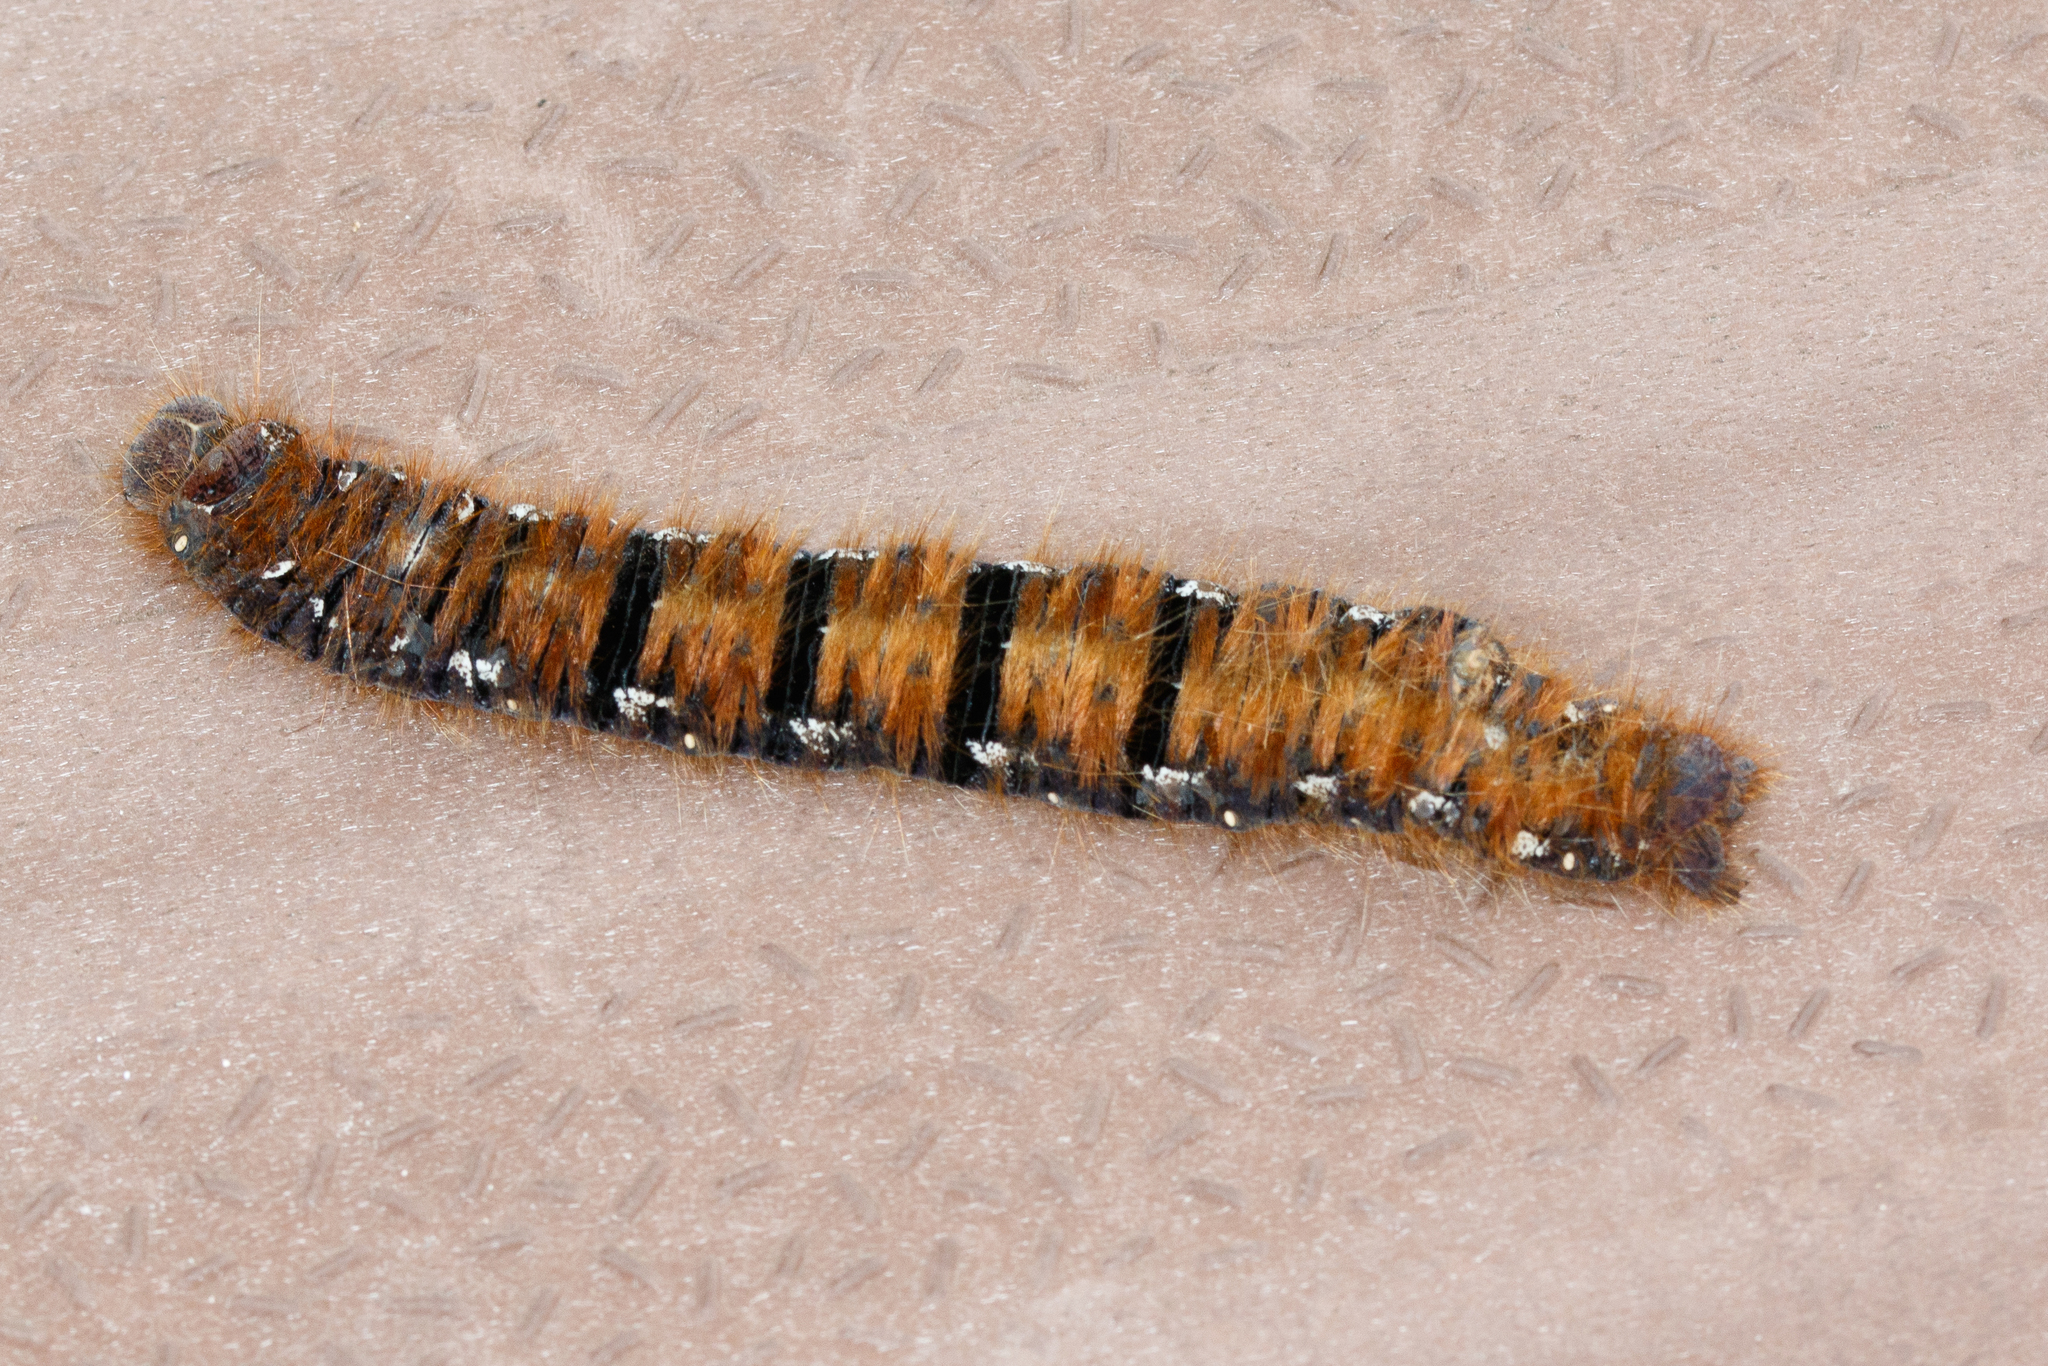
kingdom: Animalia
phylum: Arthropoda
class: Insecta
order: Lepidoptera
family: Lasiocampidae
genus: Lasiocampa
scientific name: Lasiocampa quercus
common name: Oak eggar
